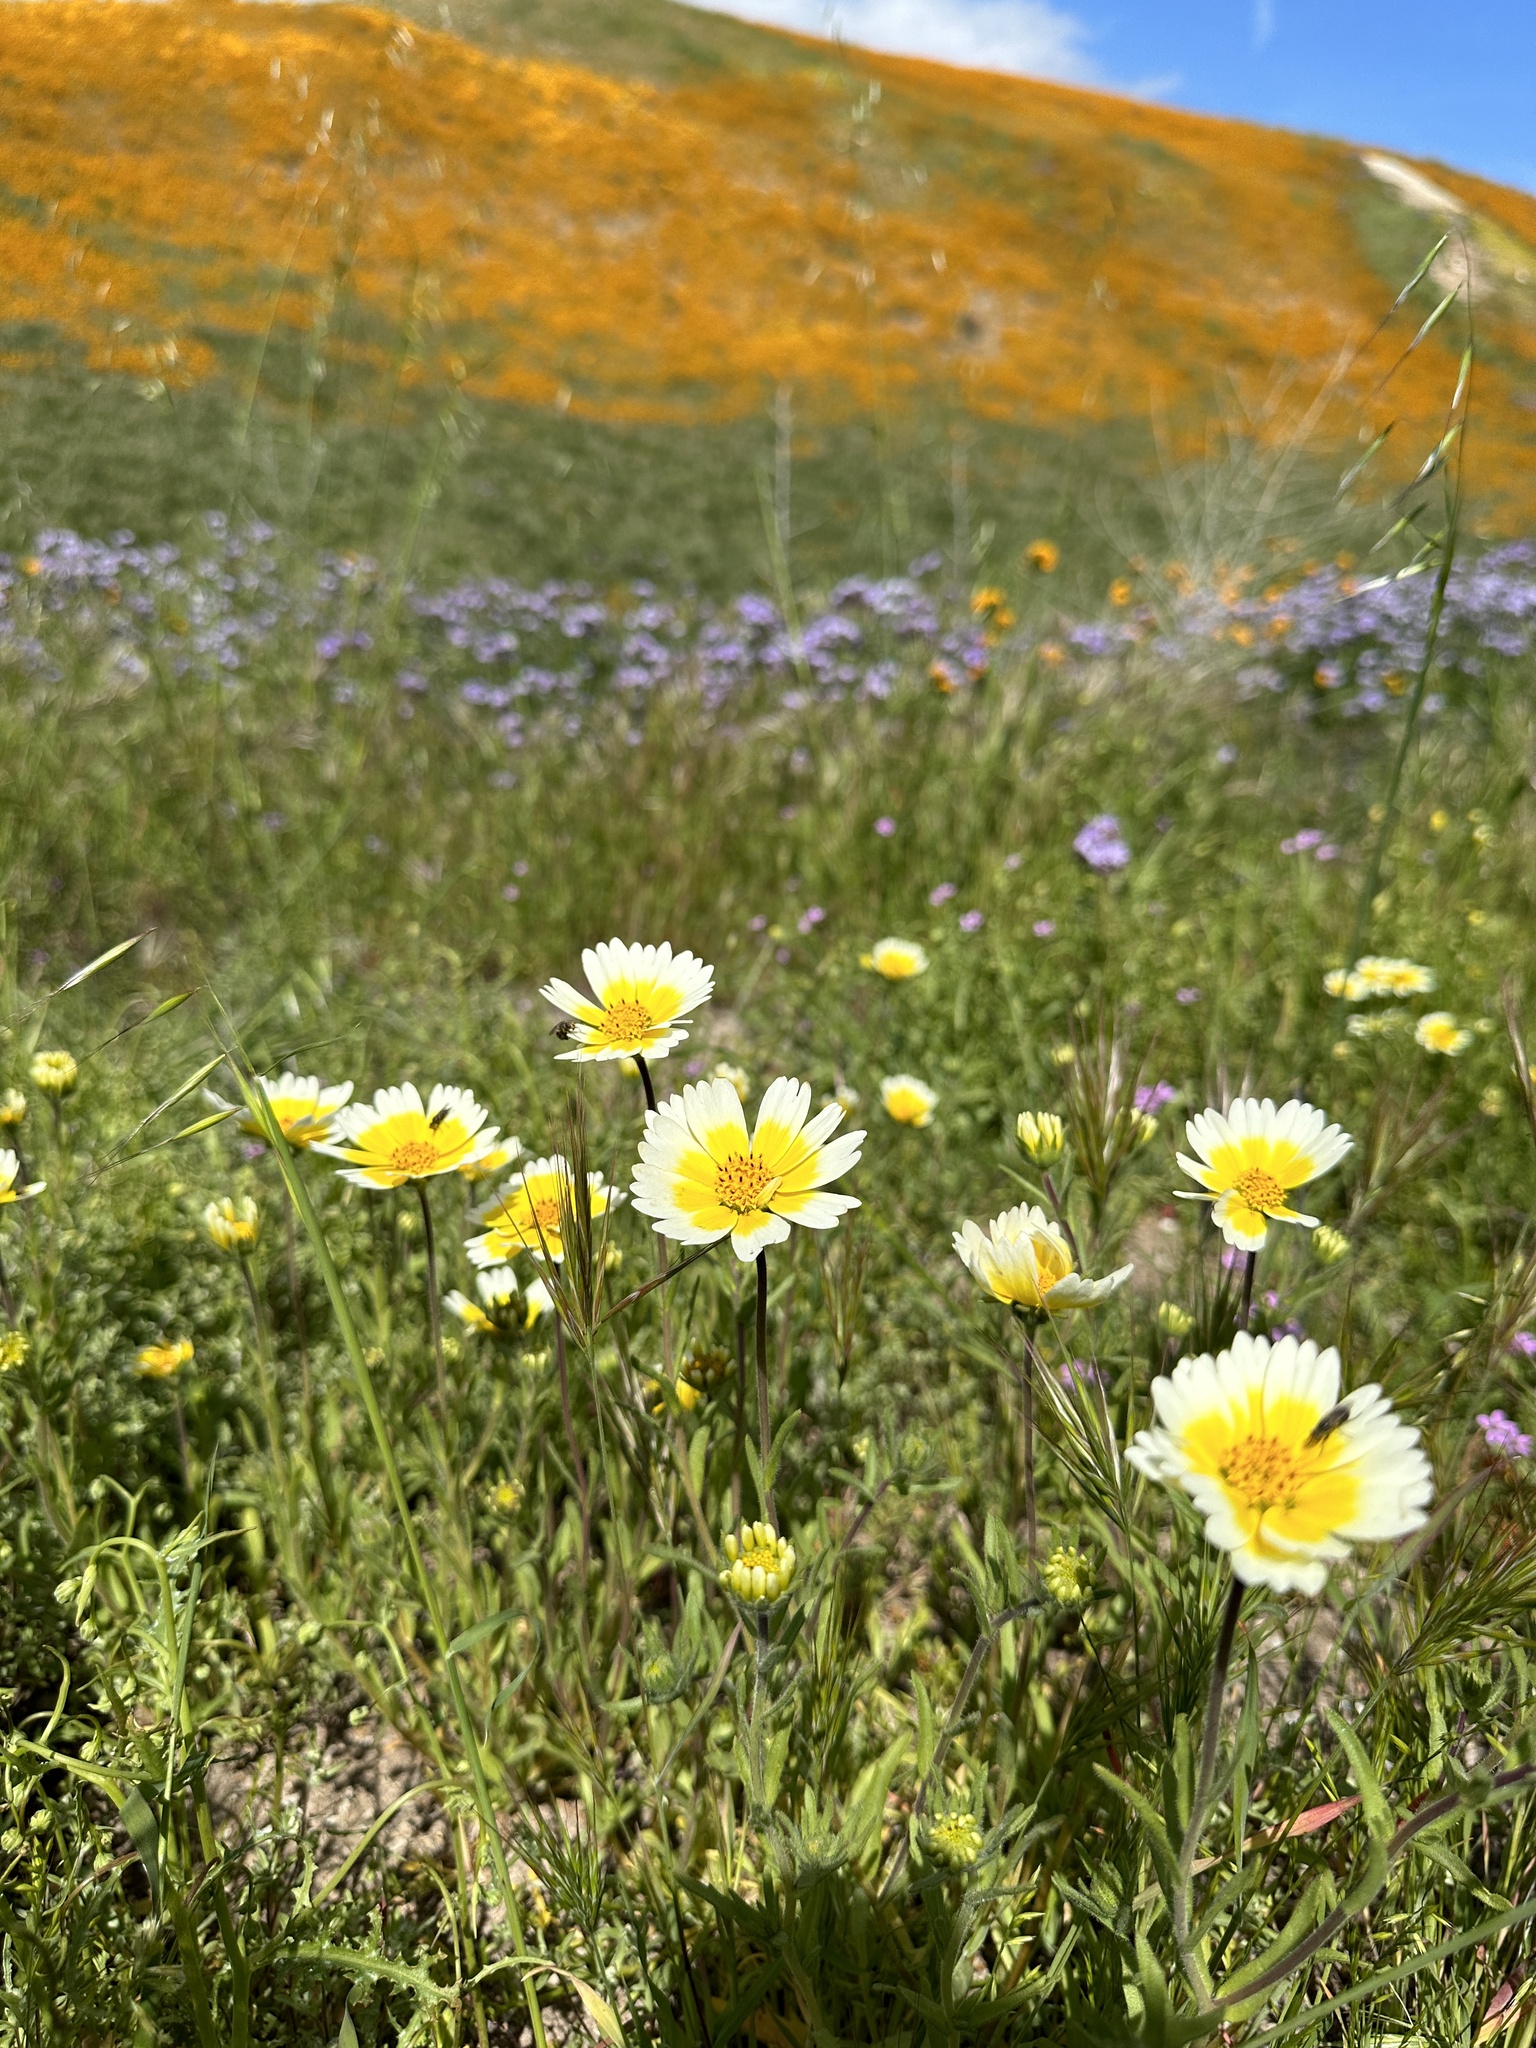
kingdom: Plantae
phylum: Tracheophyta
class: Magnoliopsida
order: Asterales
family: Asteraceae
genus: Layia
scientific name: Layia platyglossa
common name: Tidy-tips
